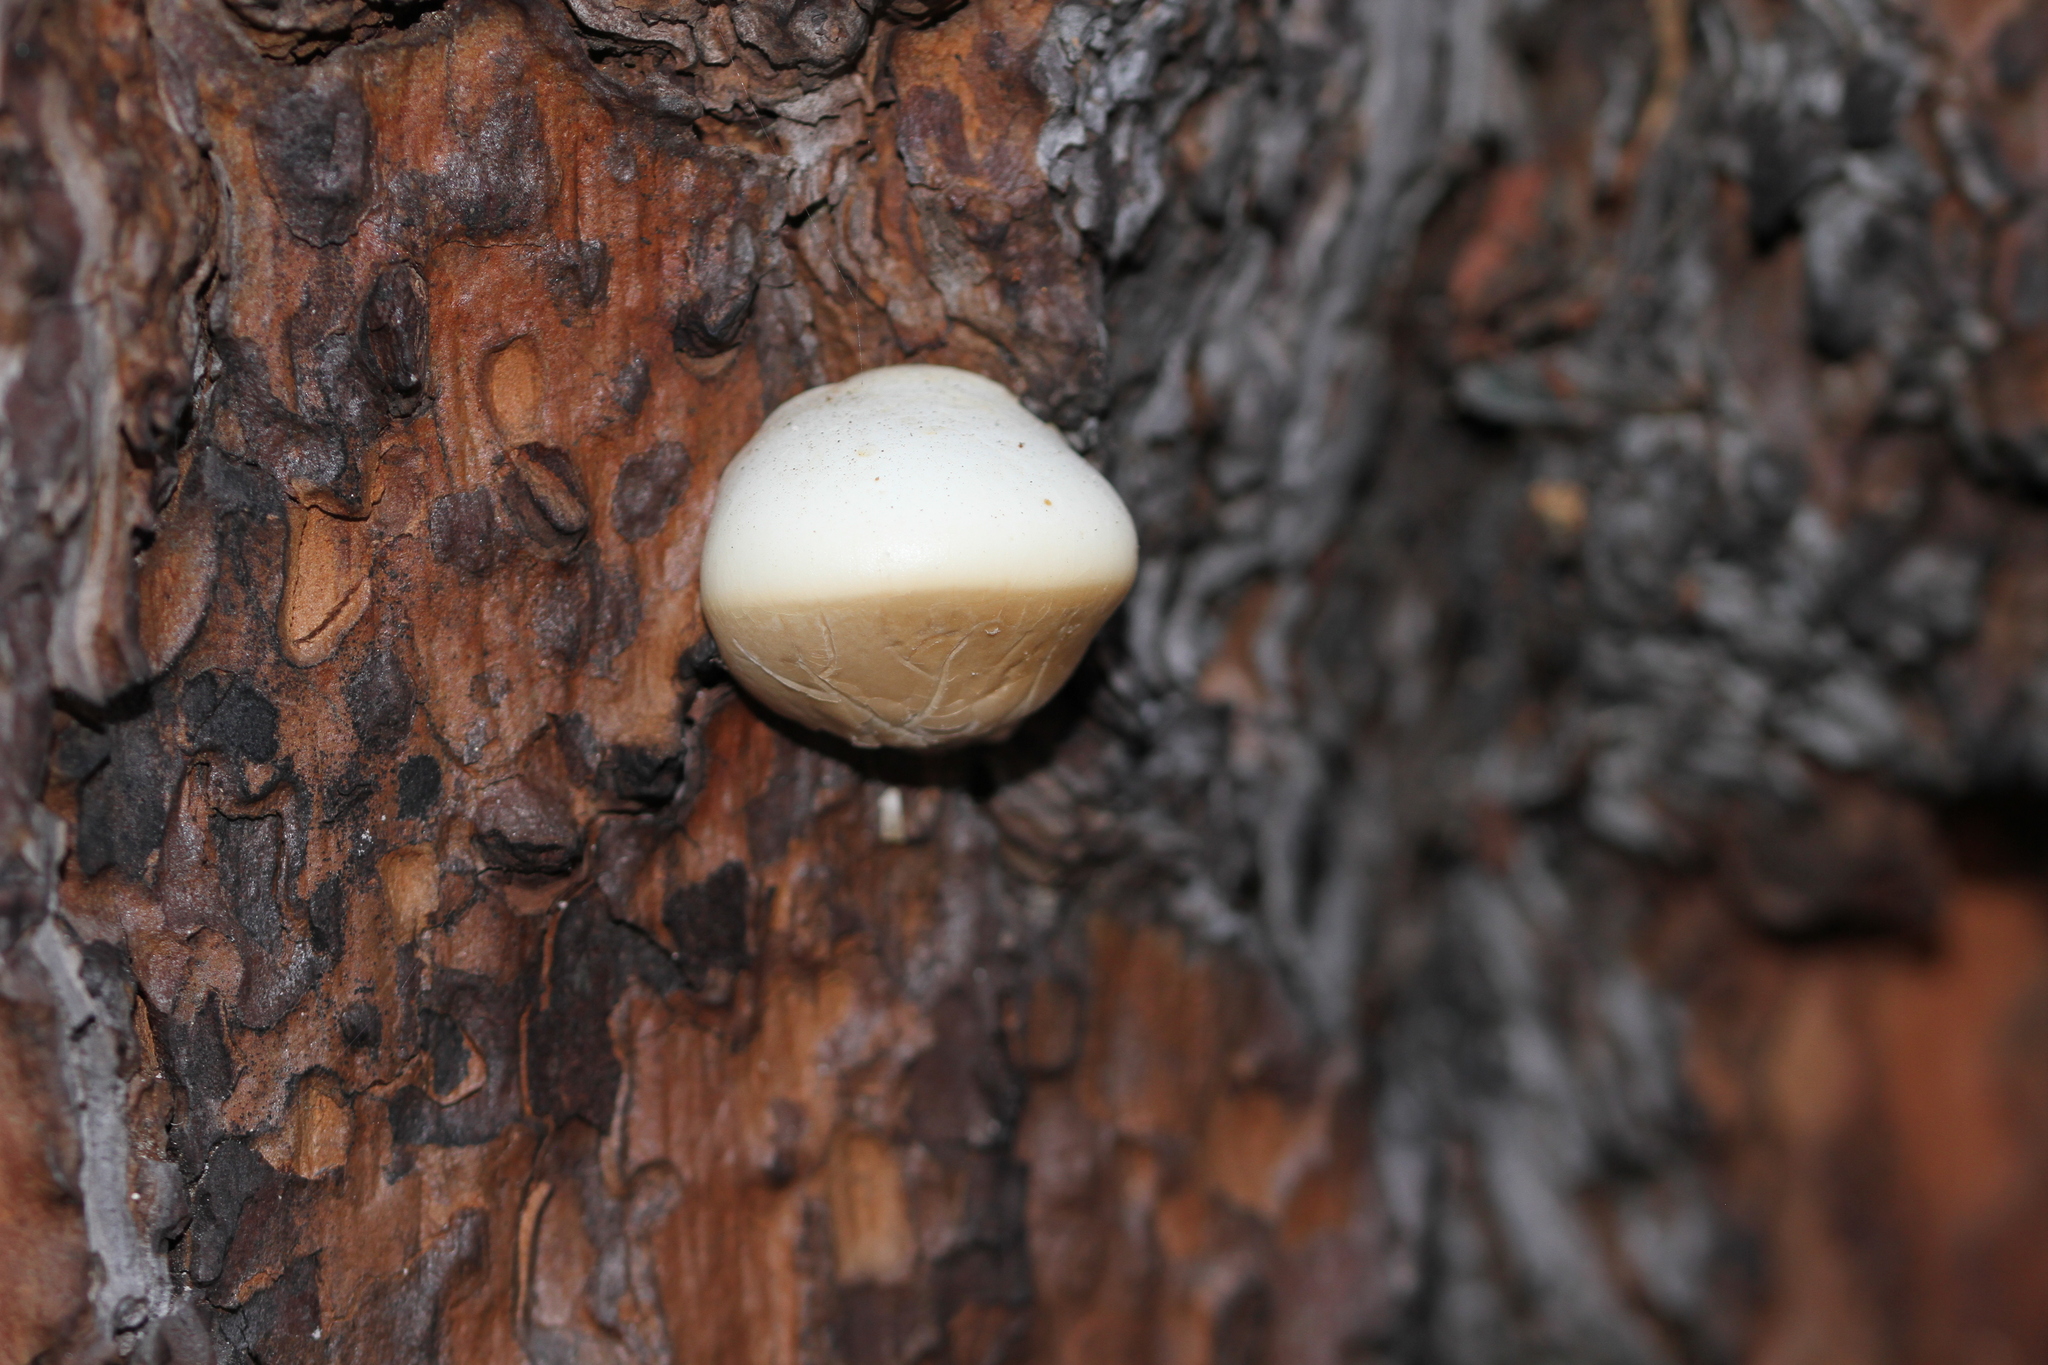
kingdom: Fungi
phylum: Basidiomycota
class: Agaricomycetes
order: Polyporales
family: Polyporaceae
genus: Cryptoporus
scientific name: Cryptoporus volvatus
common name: Veiled polypore
